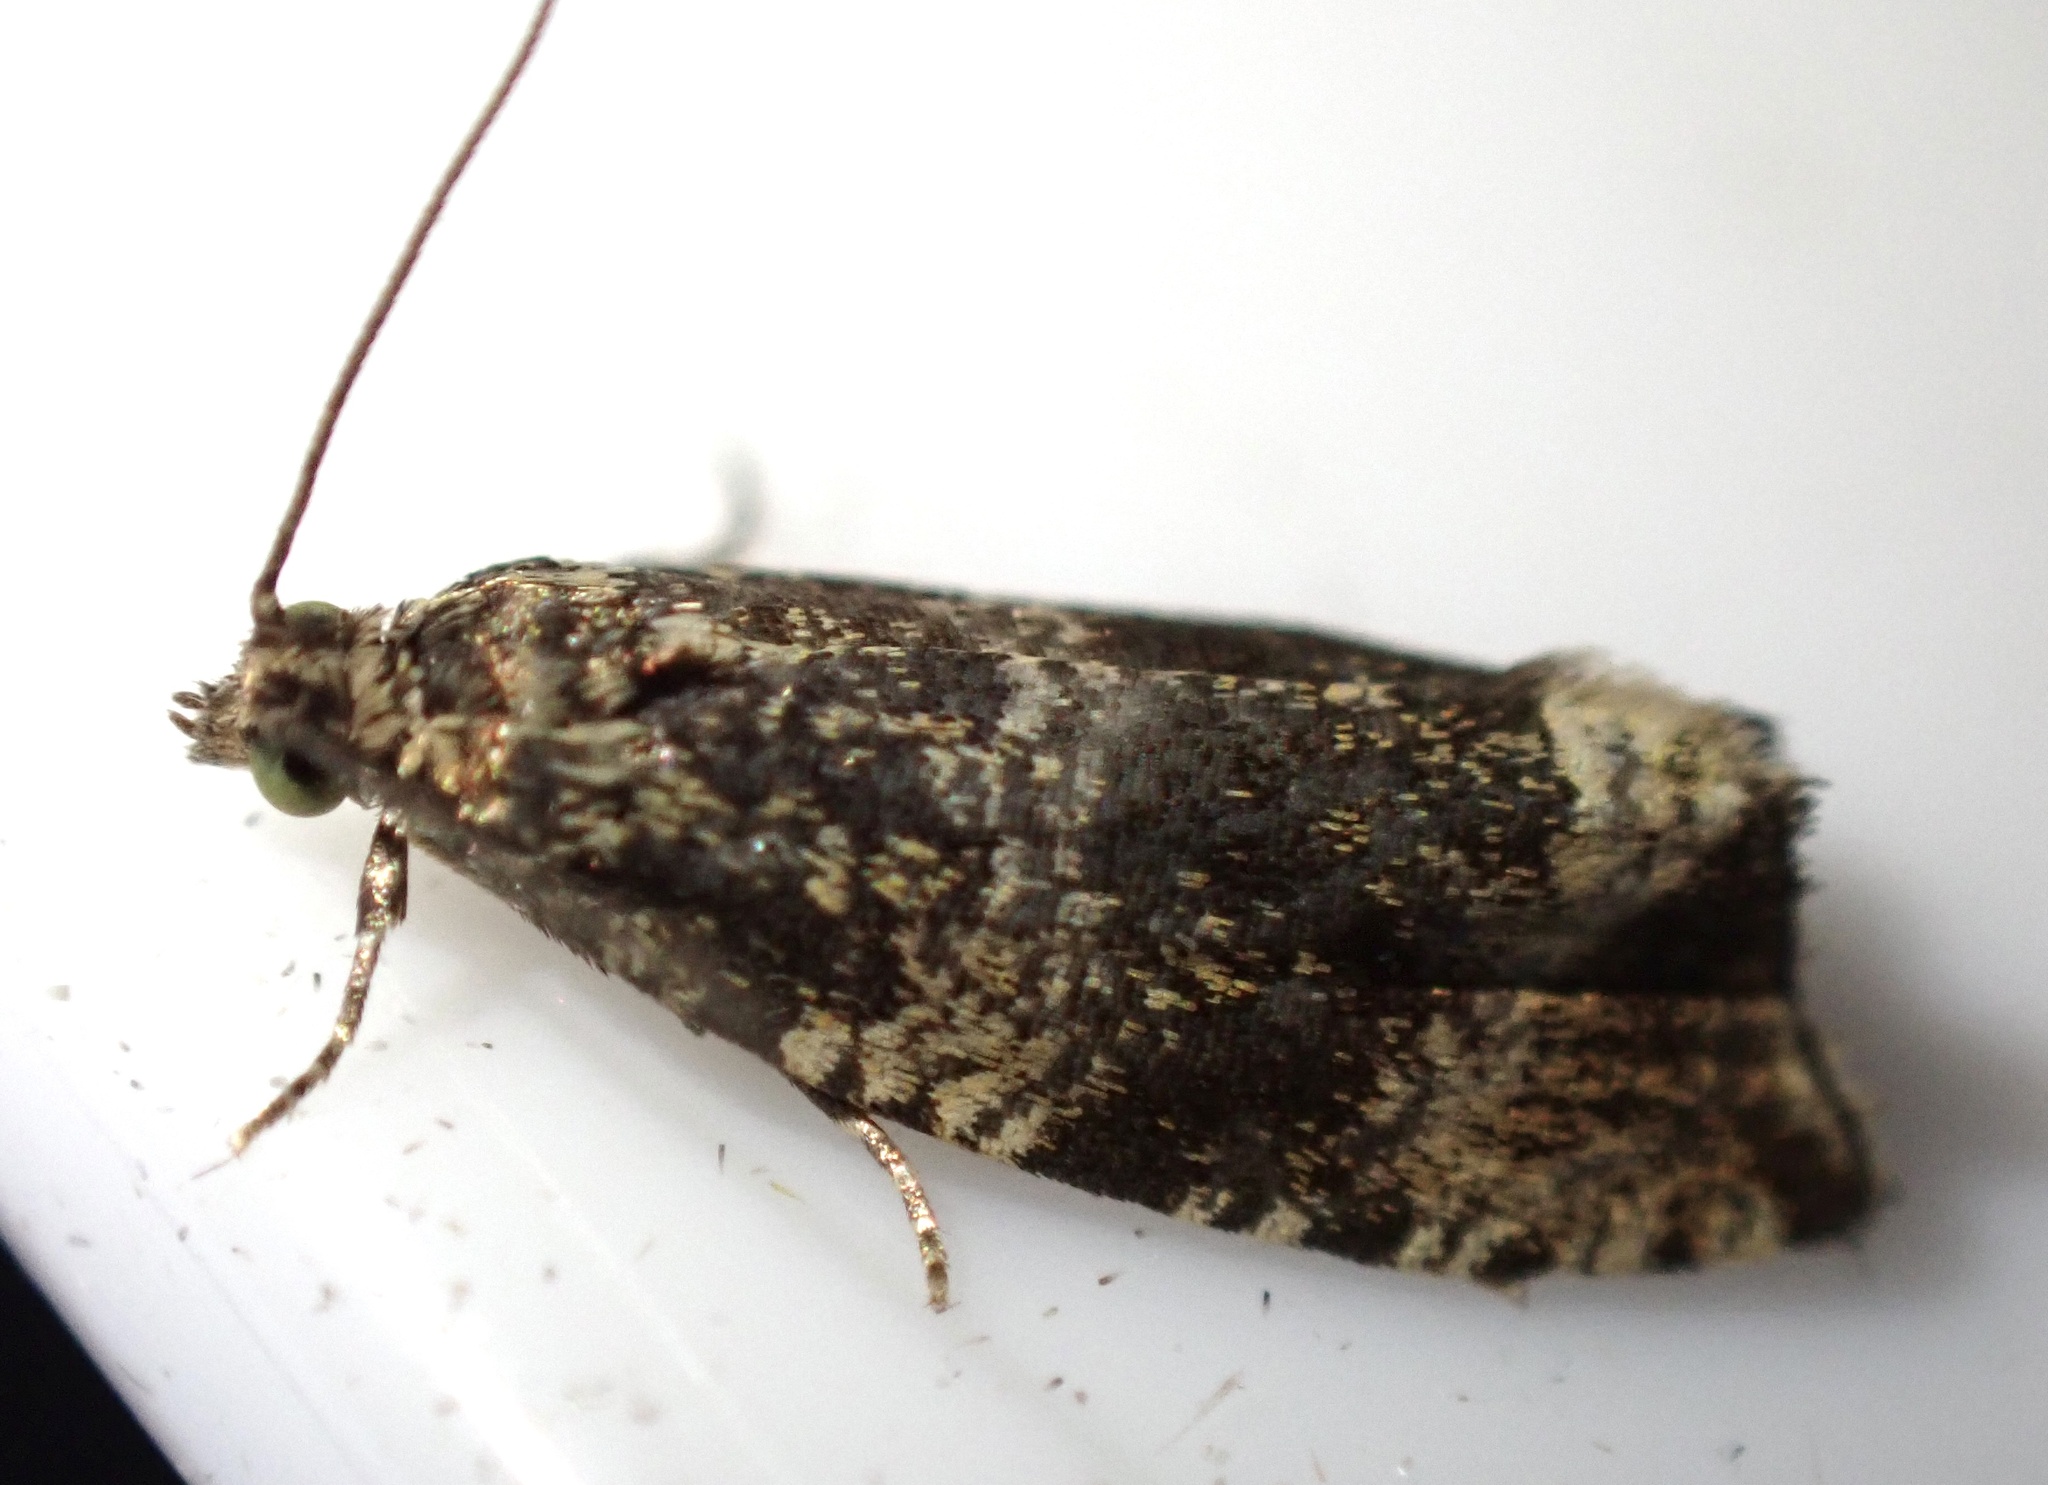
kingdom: Animalia
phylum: Arthropoda
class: Insecta
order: Lepidoptera
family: Tortricidae
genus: Syricoris
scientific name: Syricoris lacunana
